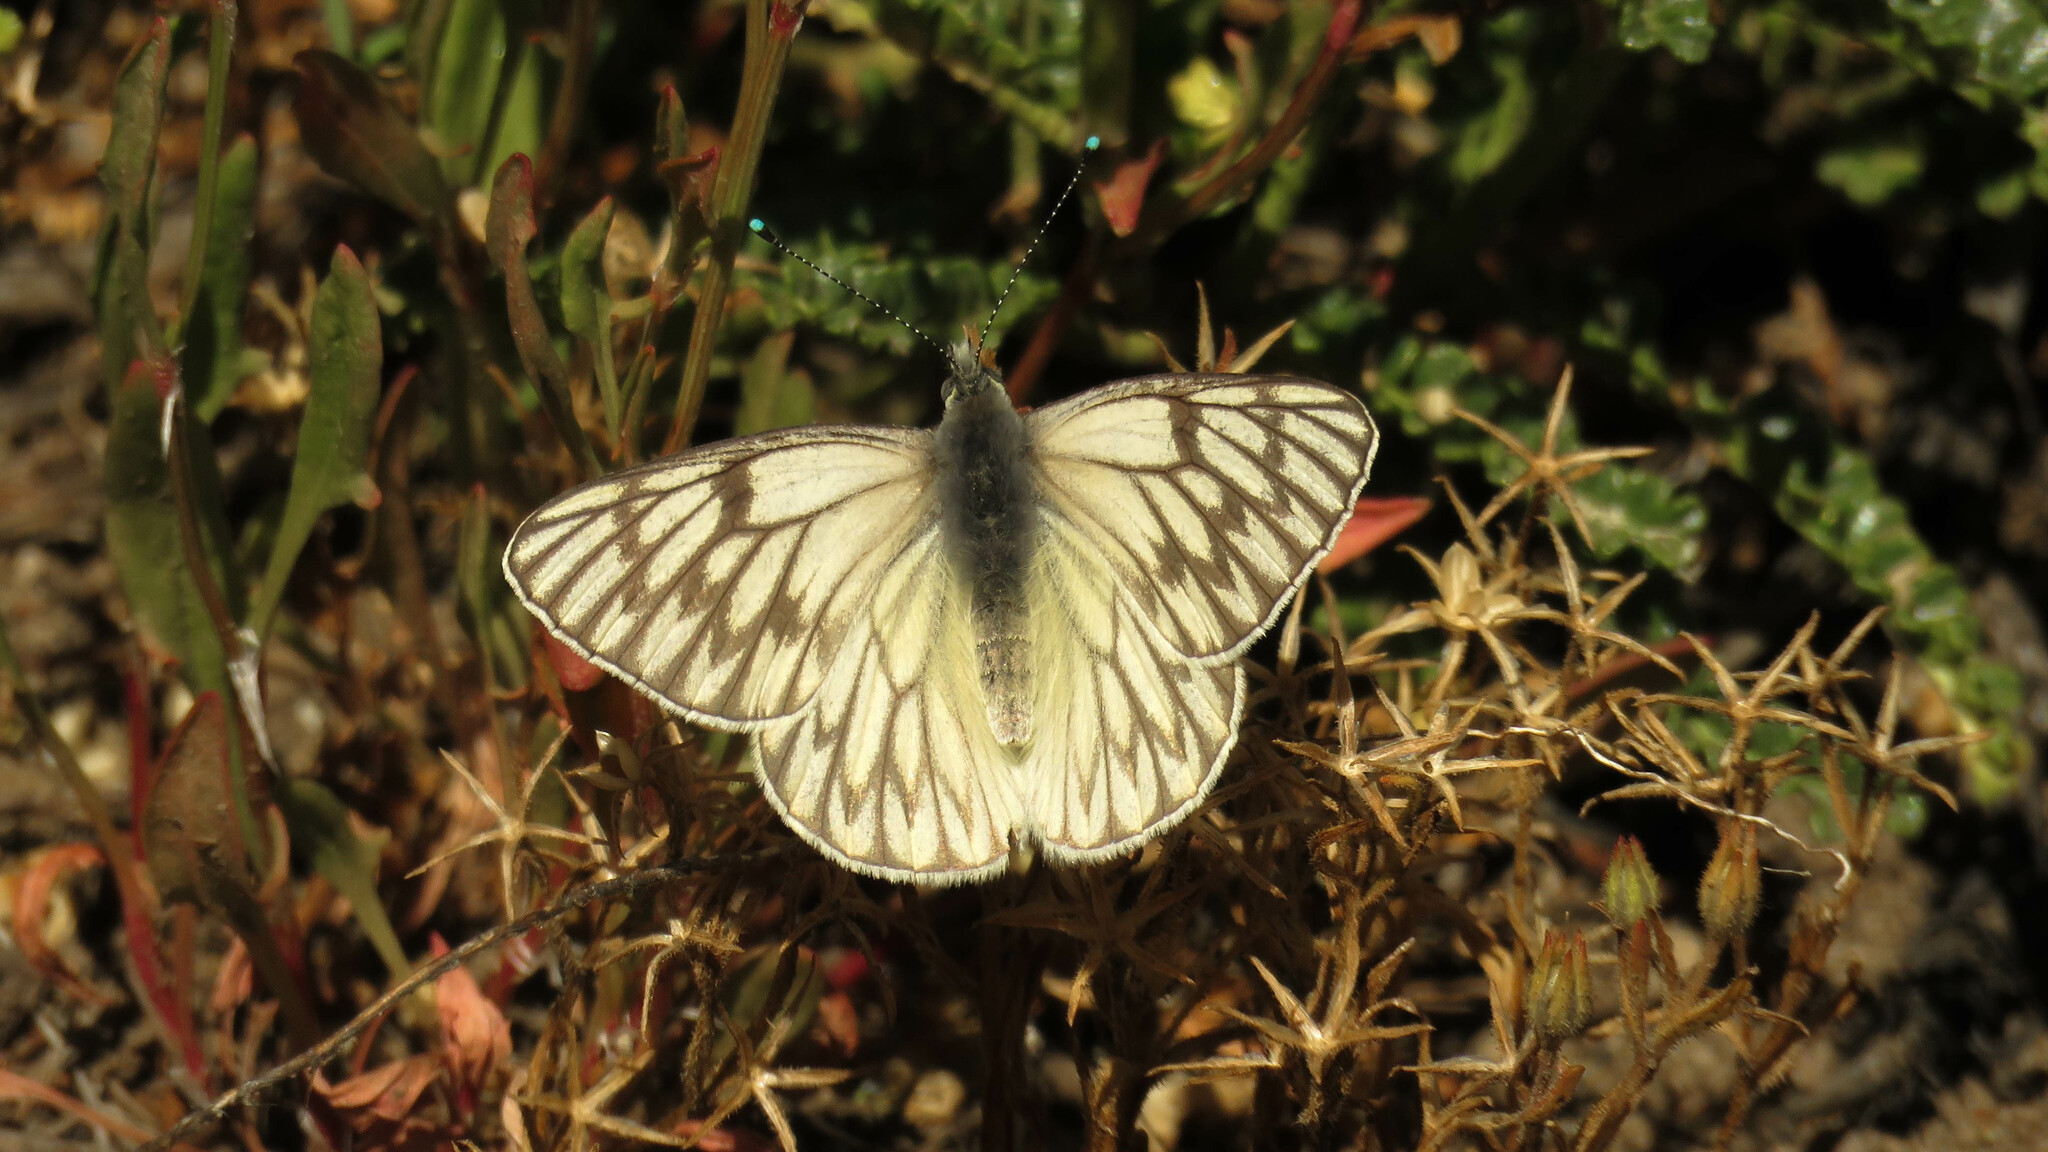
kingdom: Animalia
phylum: Arthropoda
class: Insecta
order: Lepidoptera
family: Pieridae
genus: Tatochila
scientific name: Tatochila theodice
